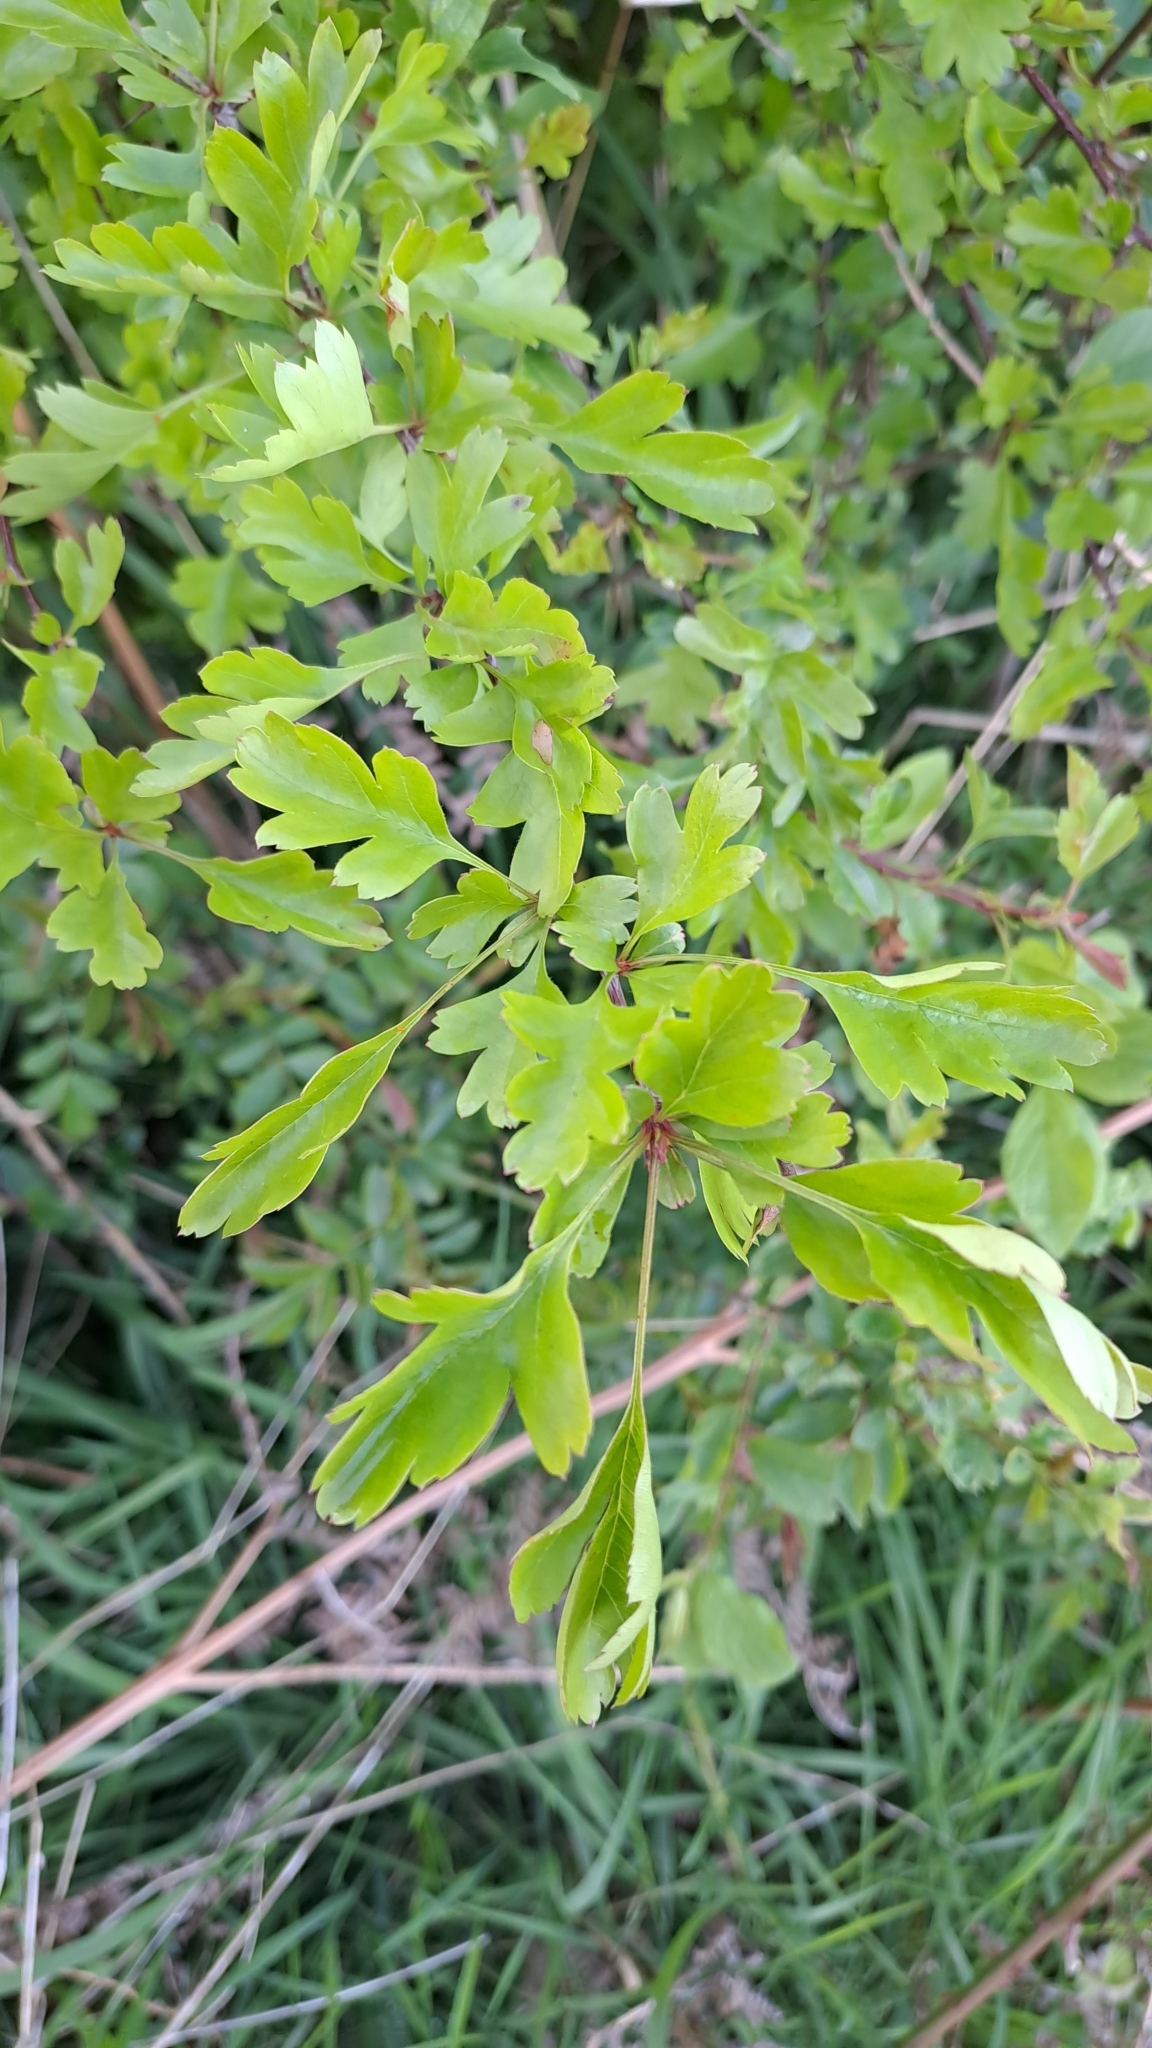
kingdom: Plantae
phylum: Tracheophyta
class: Magnoliopsida
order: Rosales
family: Rosaceae
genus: Crataegus
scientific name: Crataegus monogyna
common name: Hawthorn
